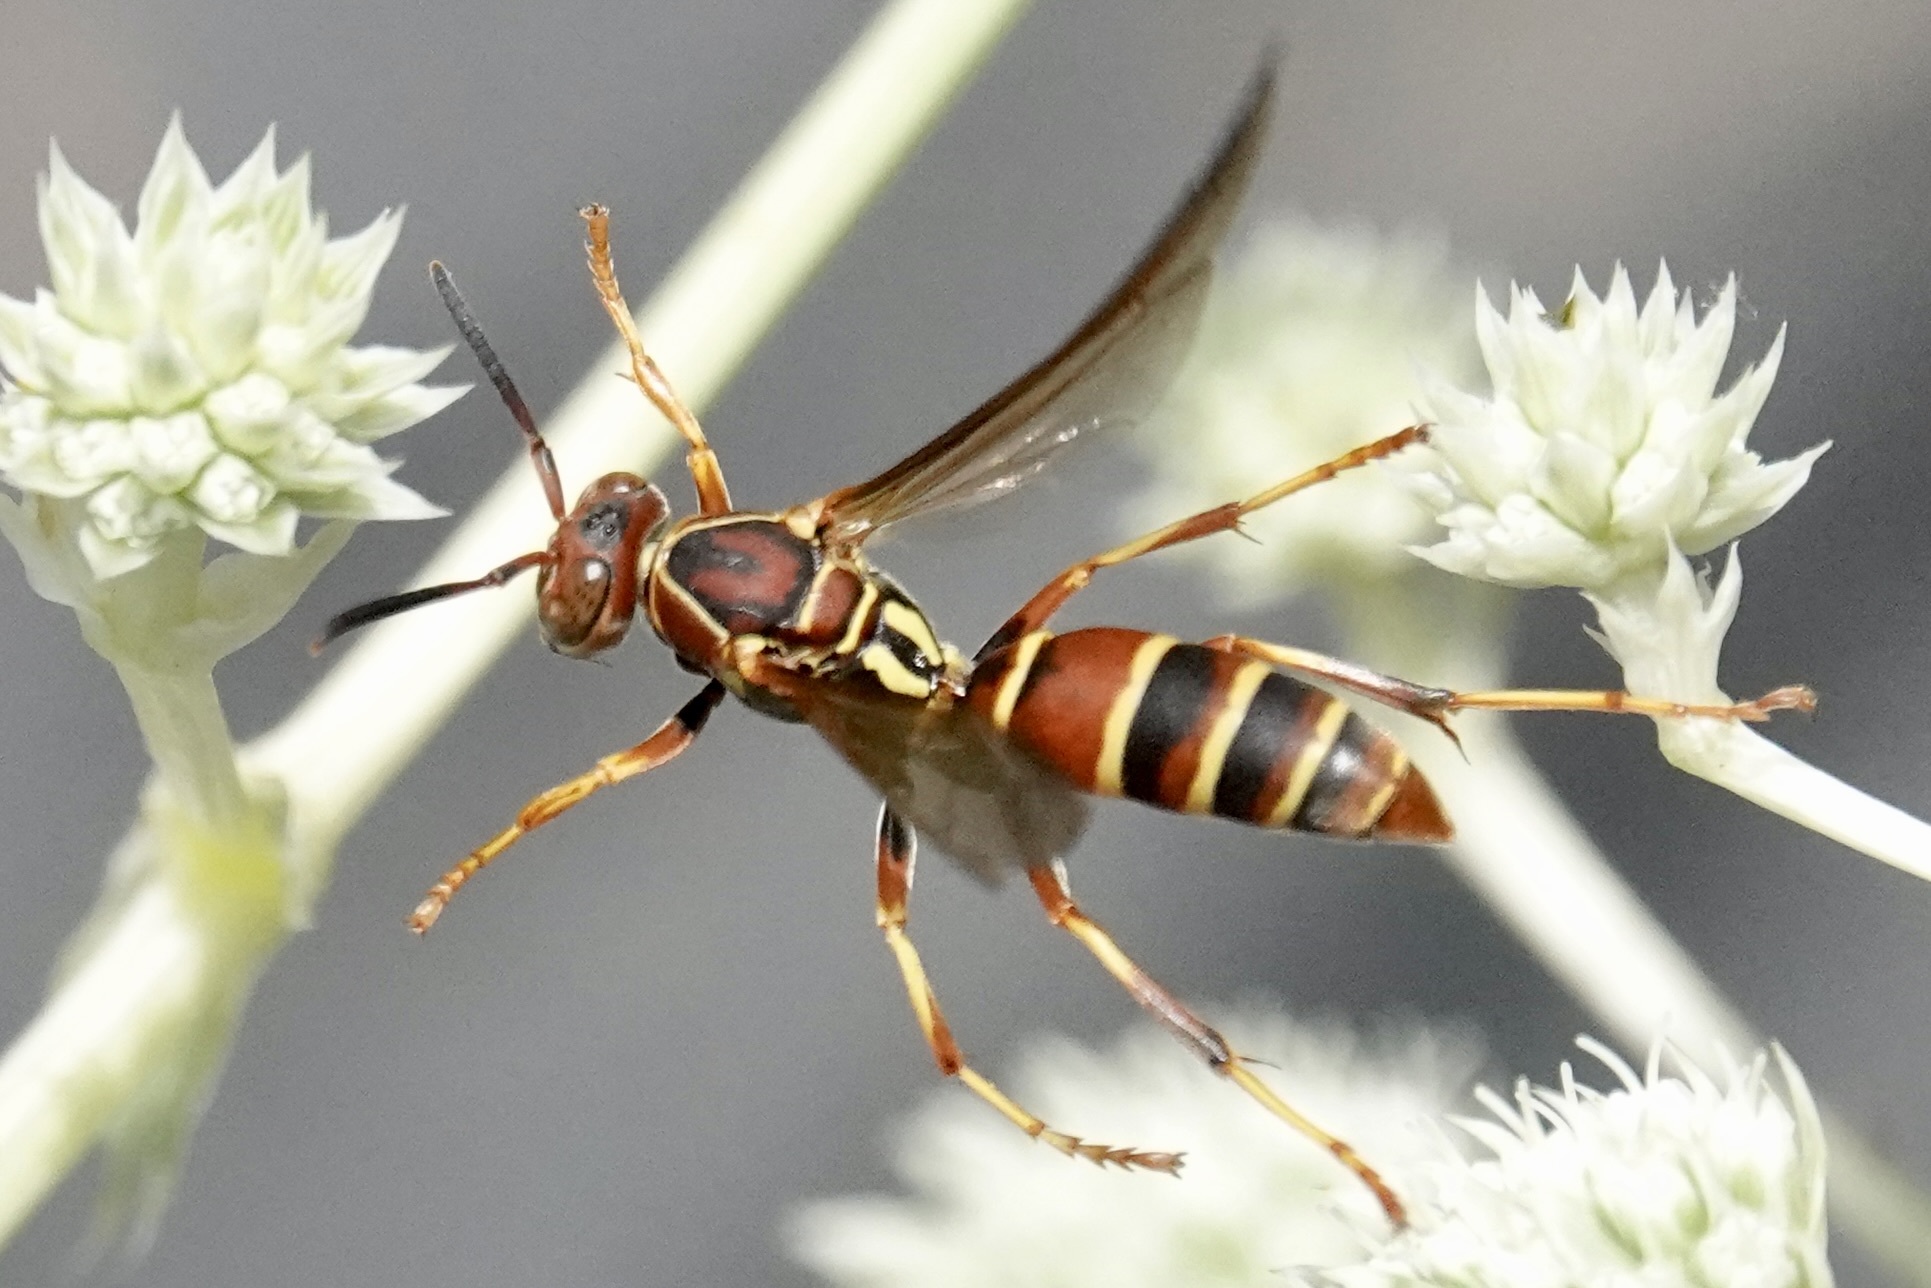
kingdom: Animalia
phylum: Arthropoda
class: Insecta
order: Hymenoptera
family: Eumenidae
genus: Polistes
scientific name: Polistes dorsalis
